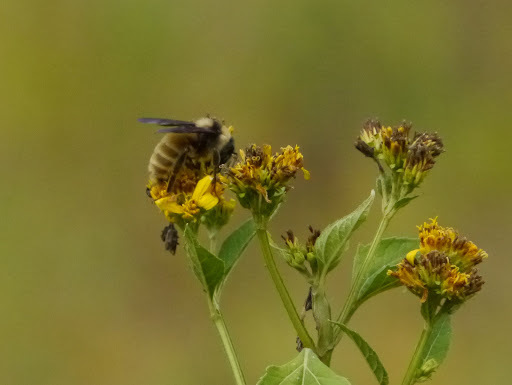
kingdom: Animalia
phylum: Arthropoda
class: Insecta
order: Hymenoptera
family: Apidae
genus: Bombus
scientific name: Bombus pensylvanicus
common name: Bumble bee
